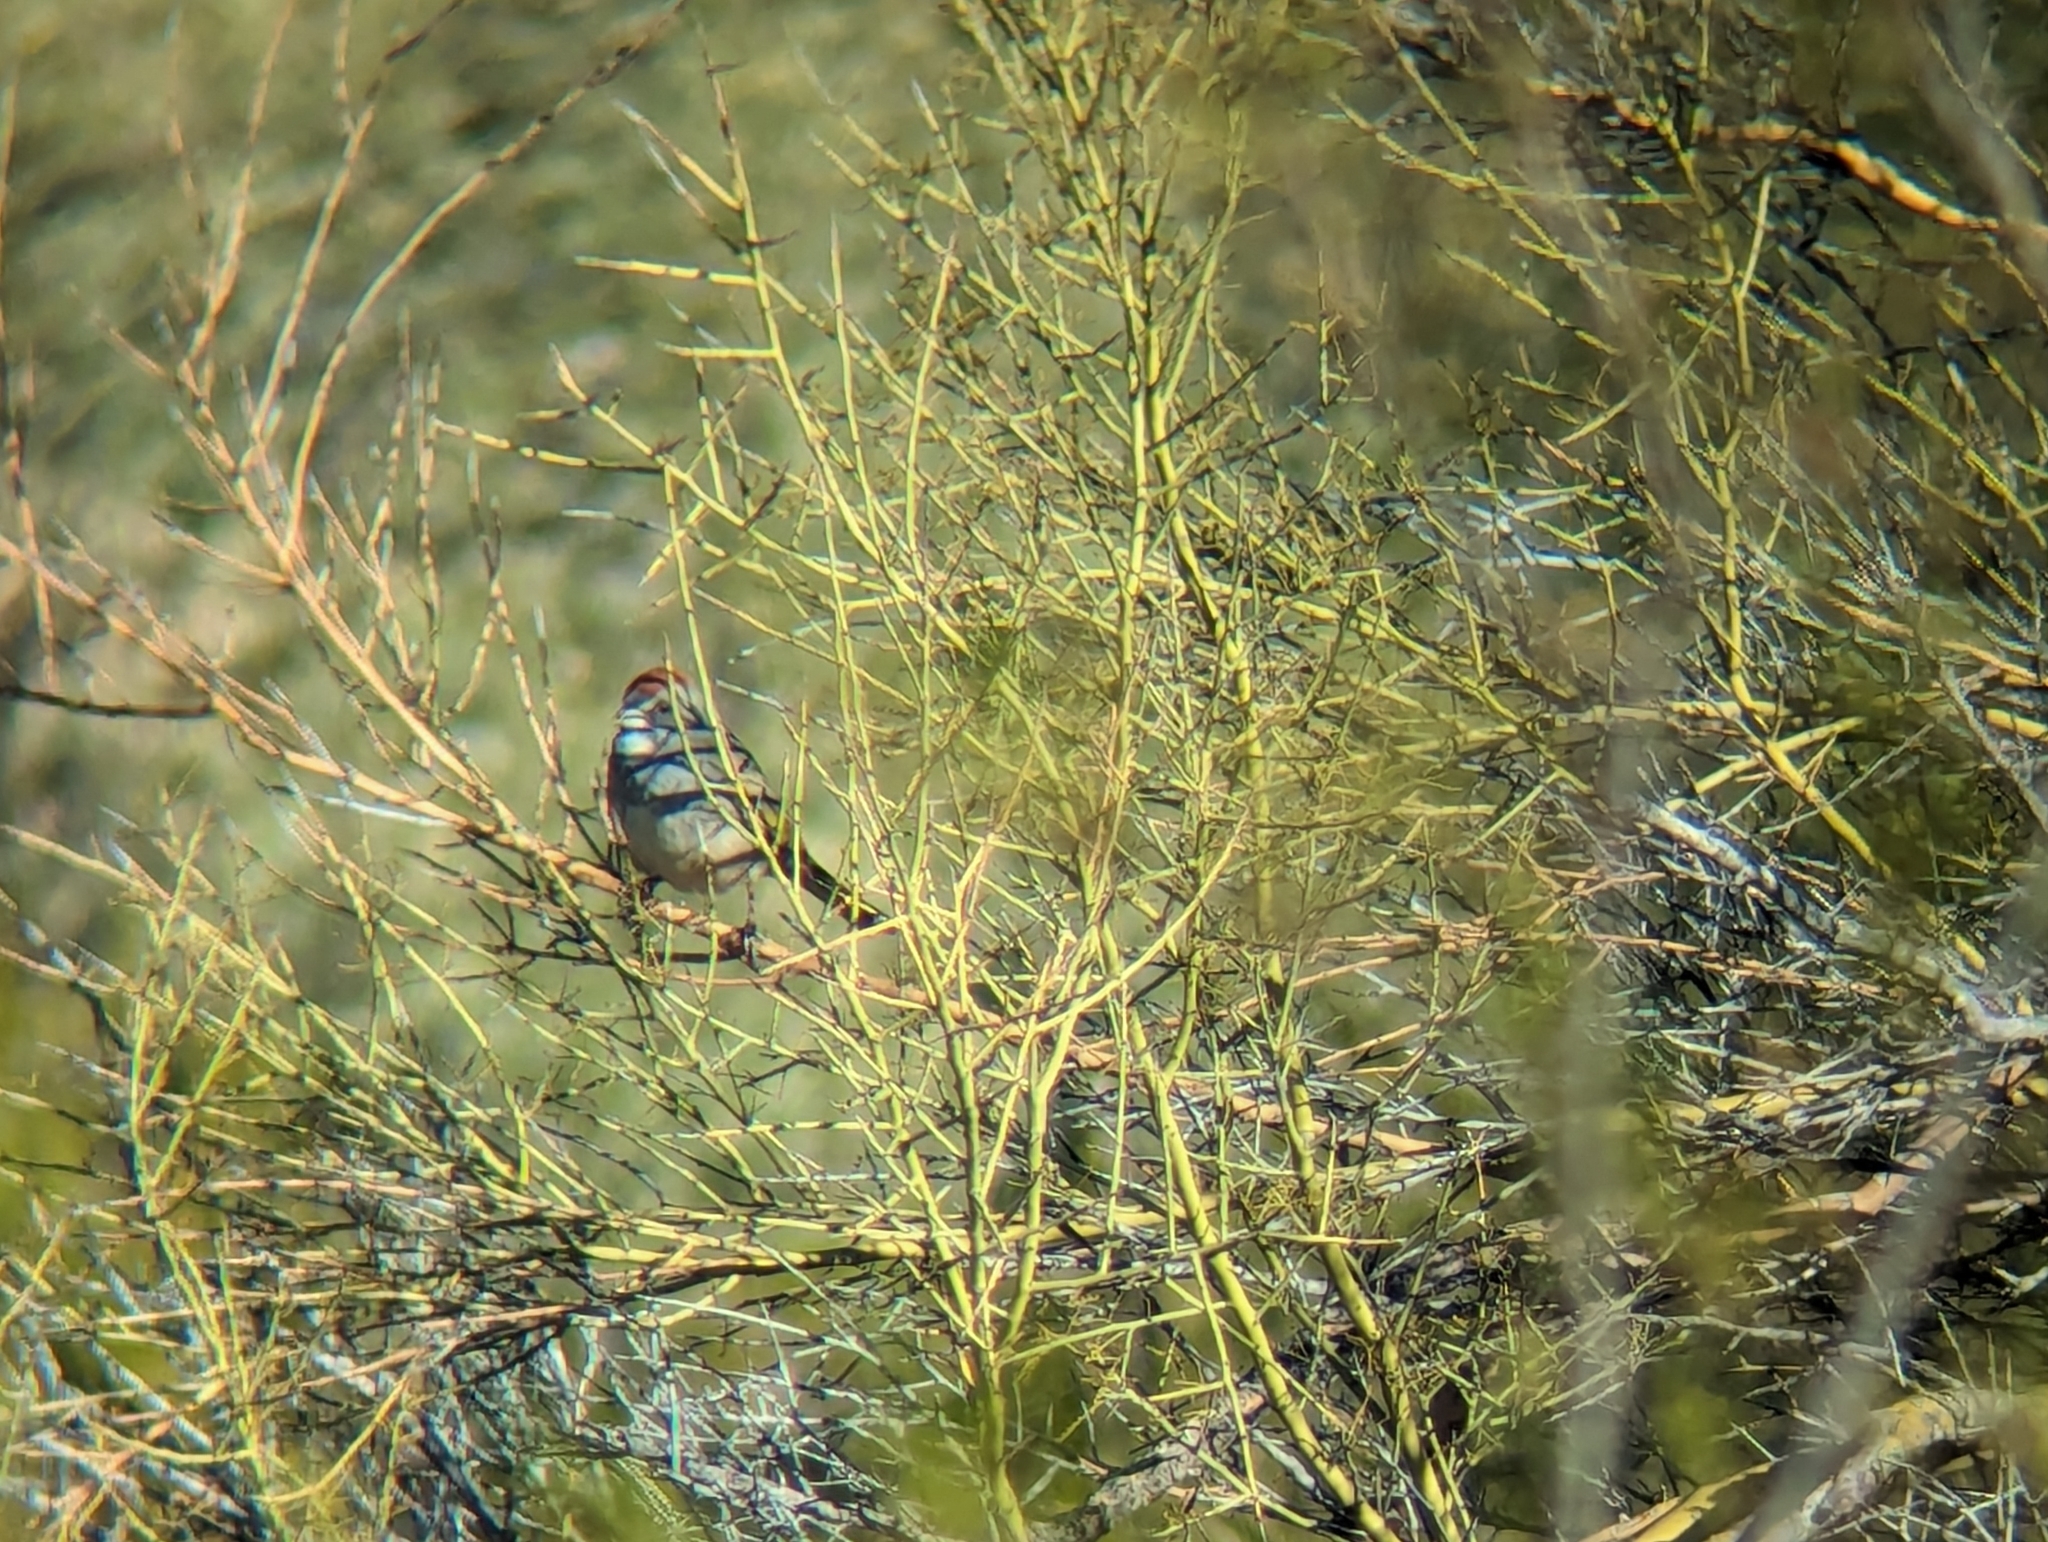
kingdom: Animalia
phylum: Chordata
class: Aves
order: Passeriformes
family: Passerellidae
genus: Pipilo
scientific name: Pipilo chlorurus
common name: Green-tailed towhee
